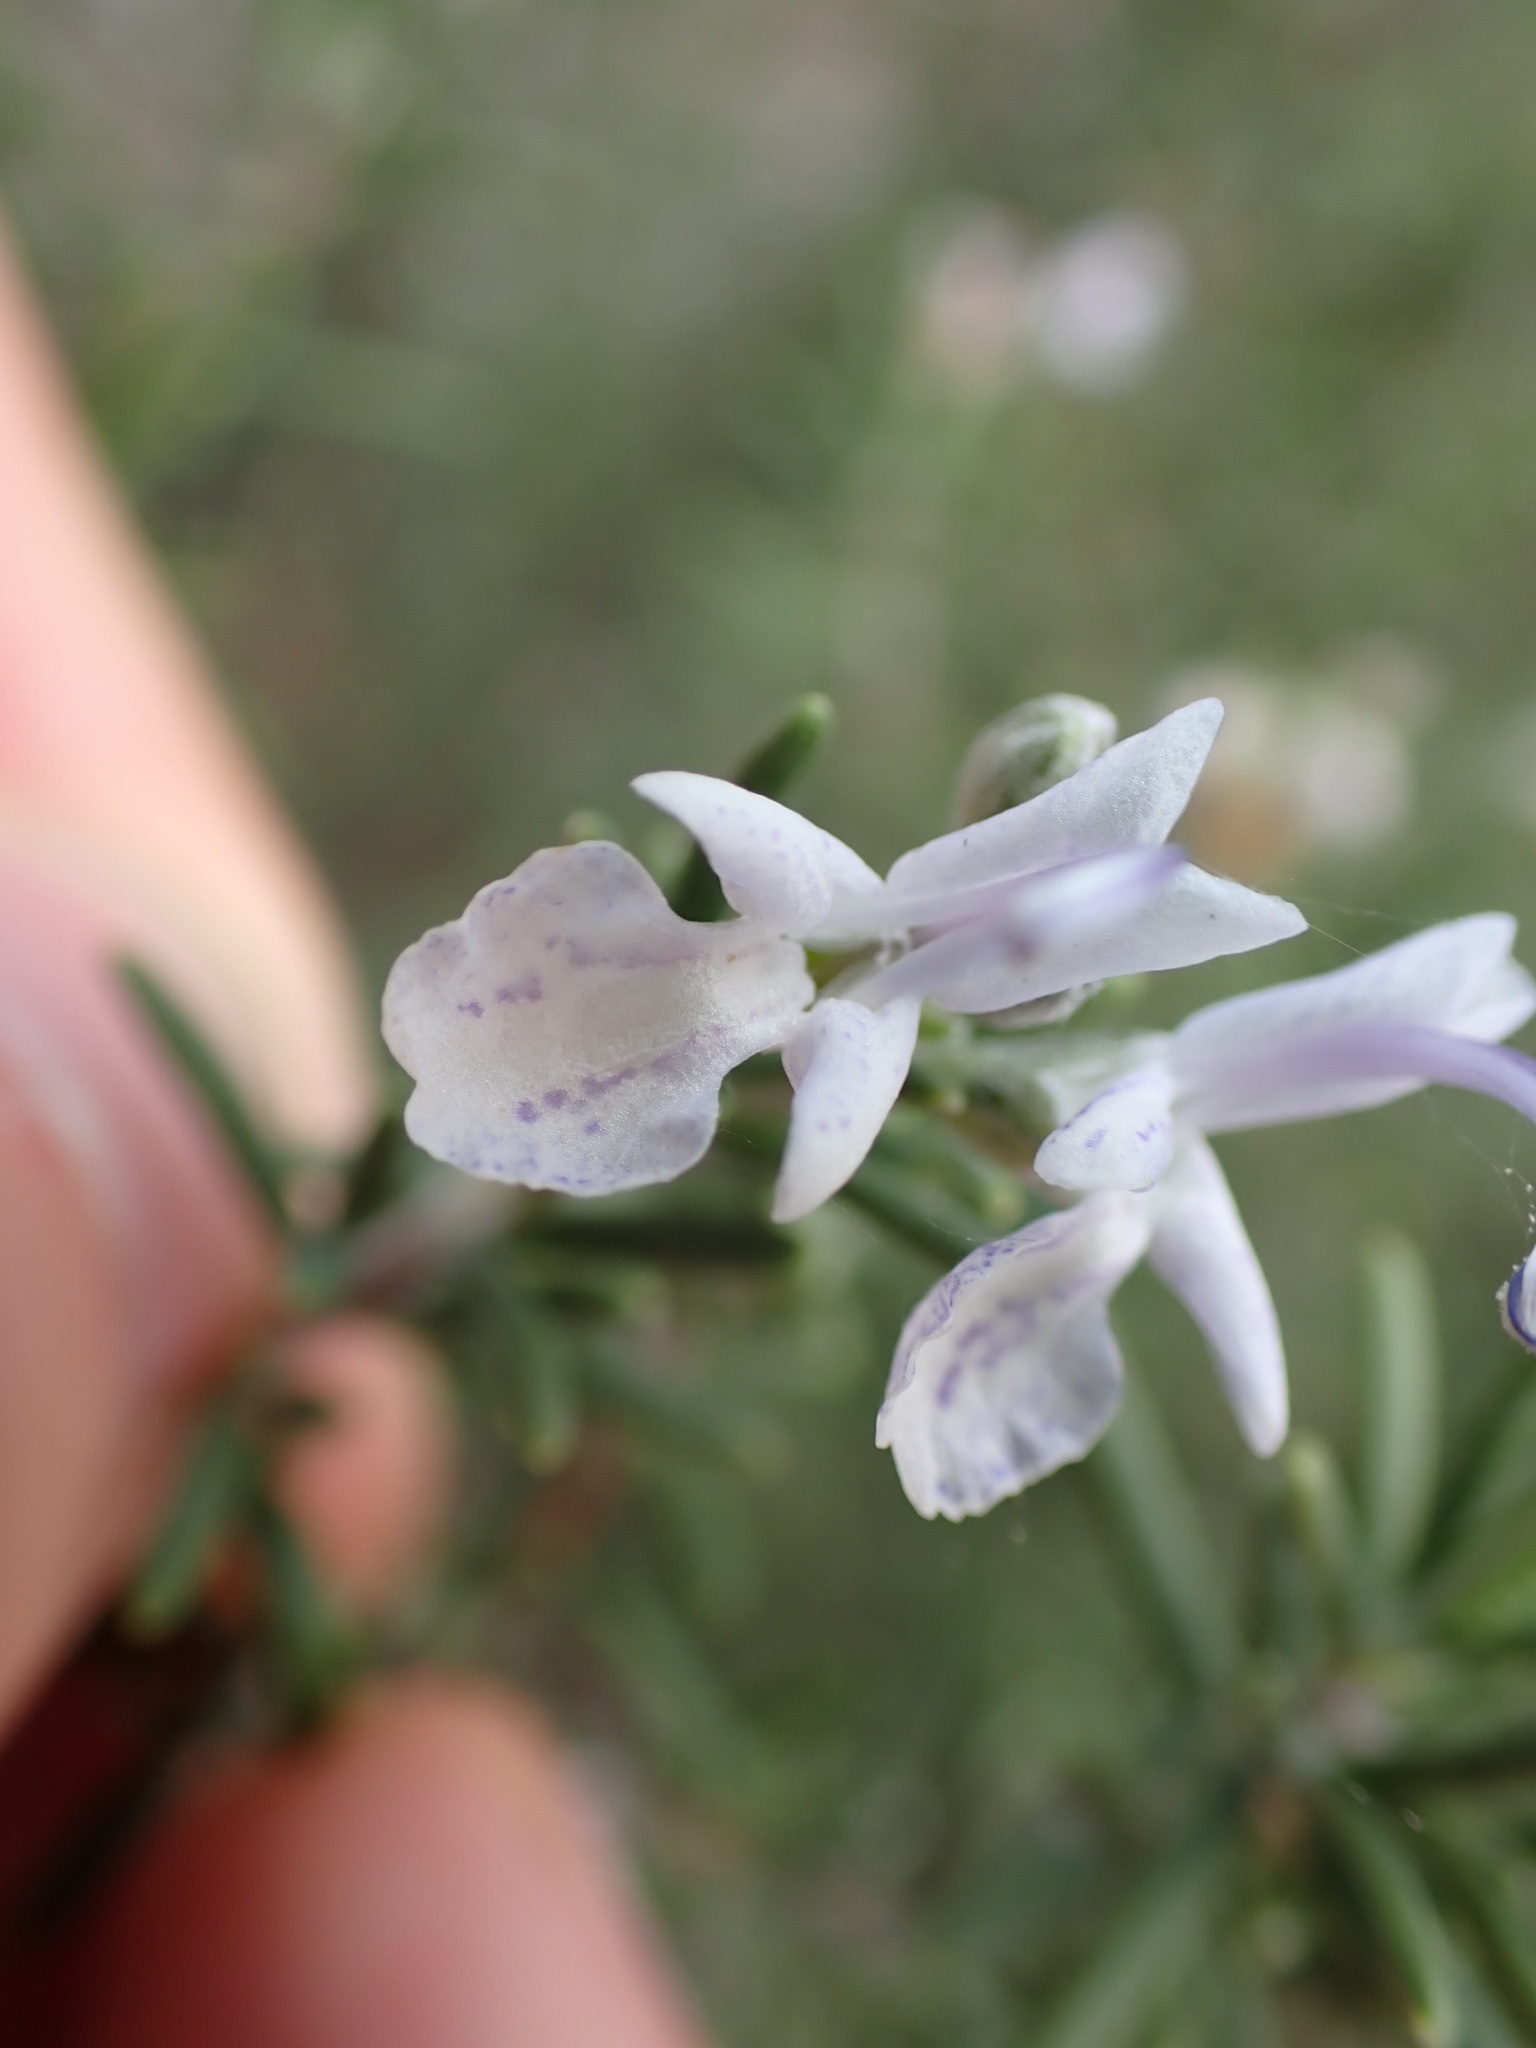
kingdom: Plantae
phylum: Tracheophyta
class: Magnoliopsida
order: Lamiales
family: Lamiaceae
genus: Salvia
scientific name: Salvia rosmarinus
